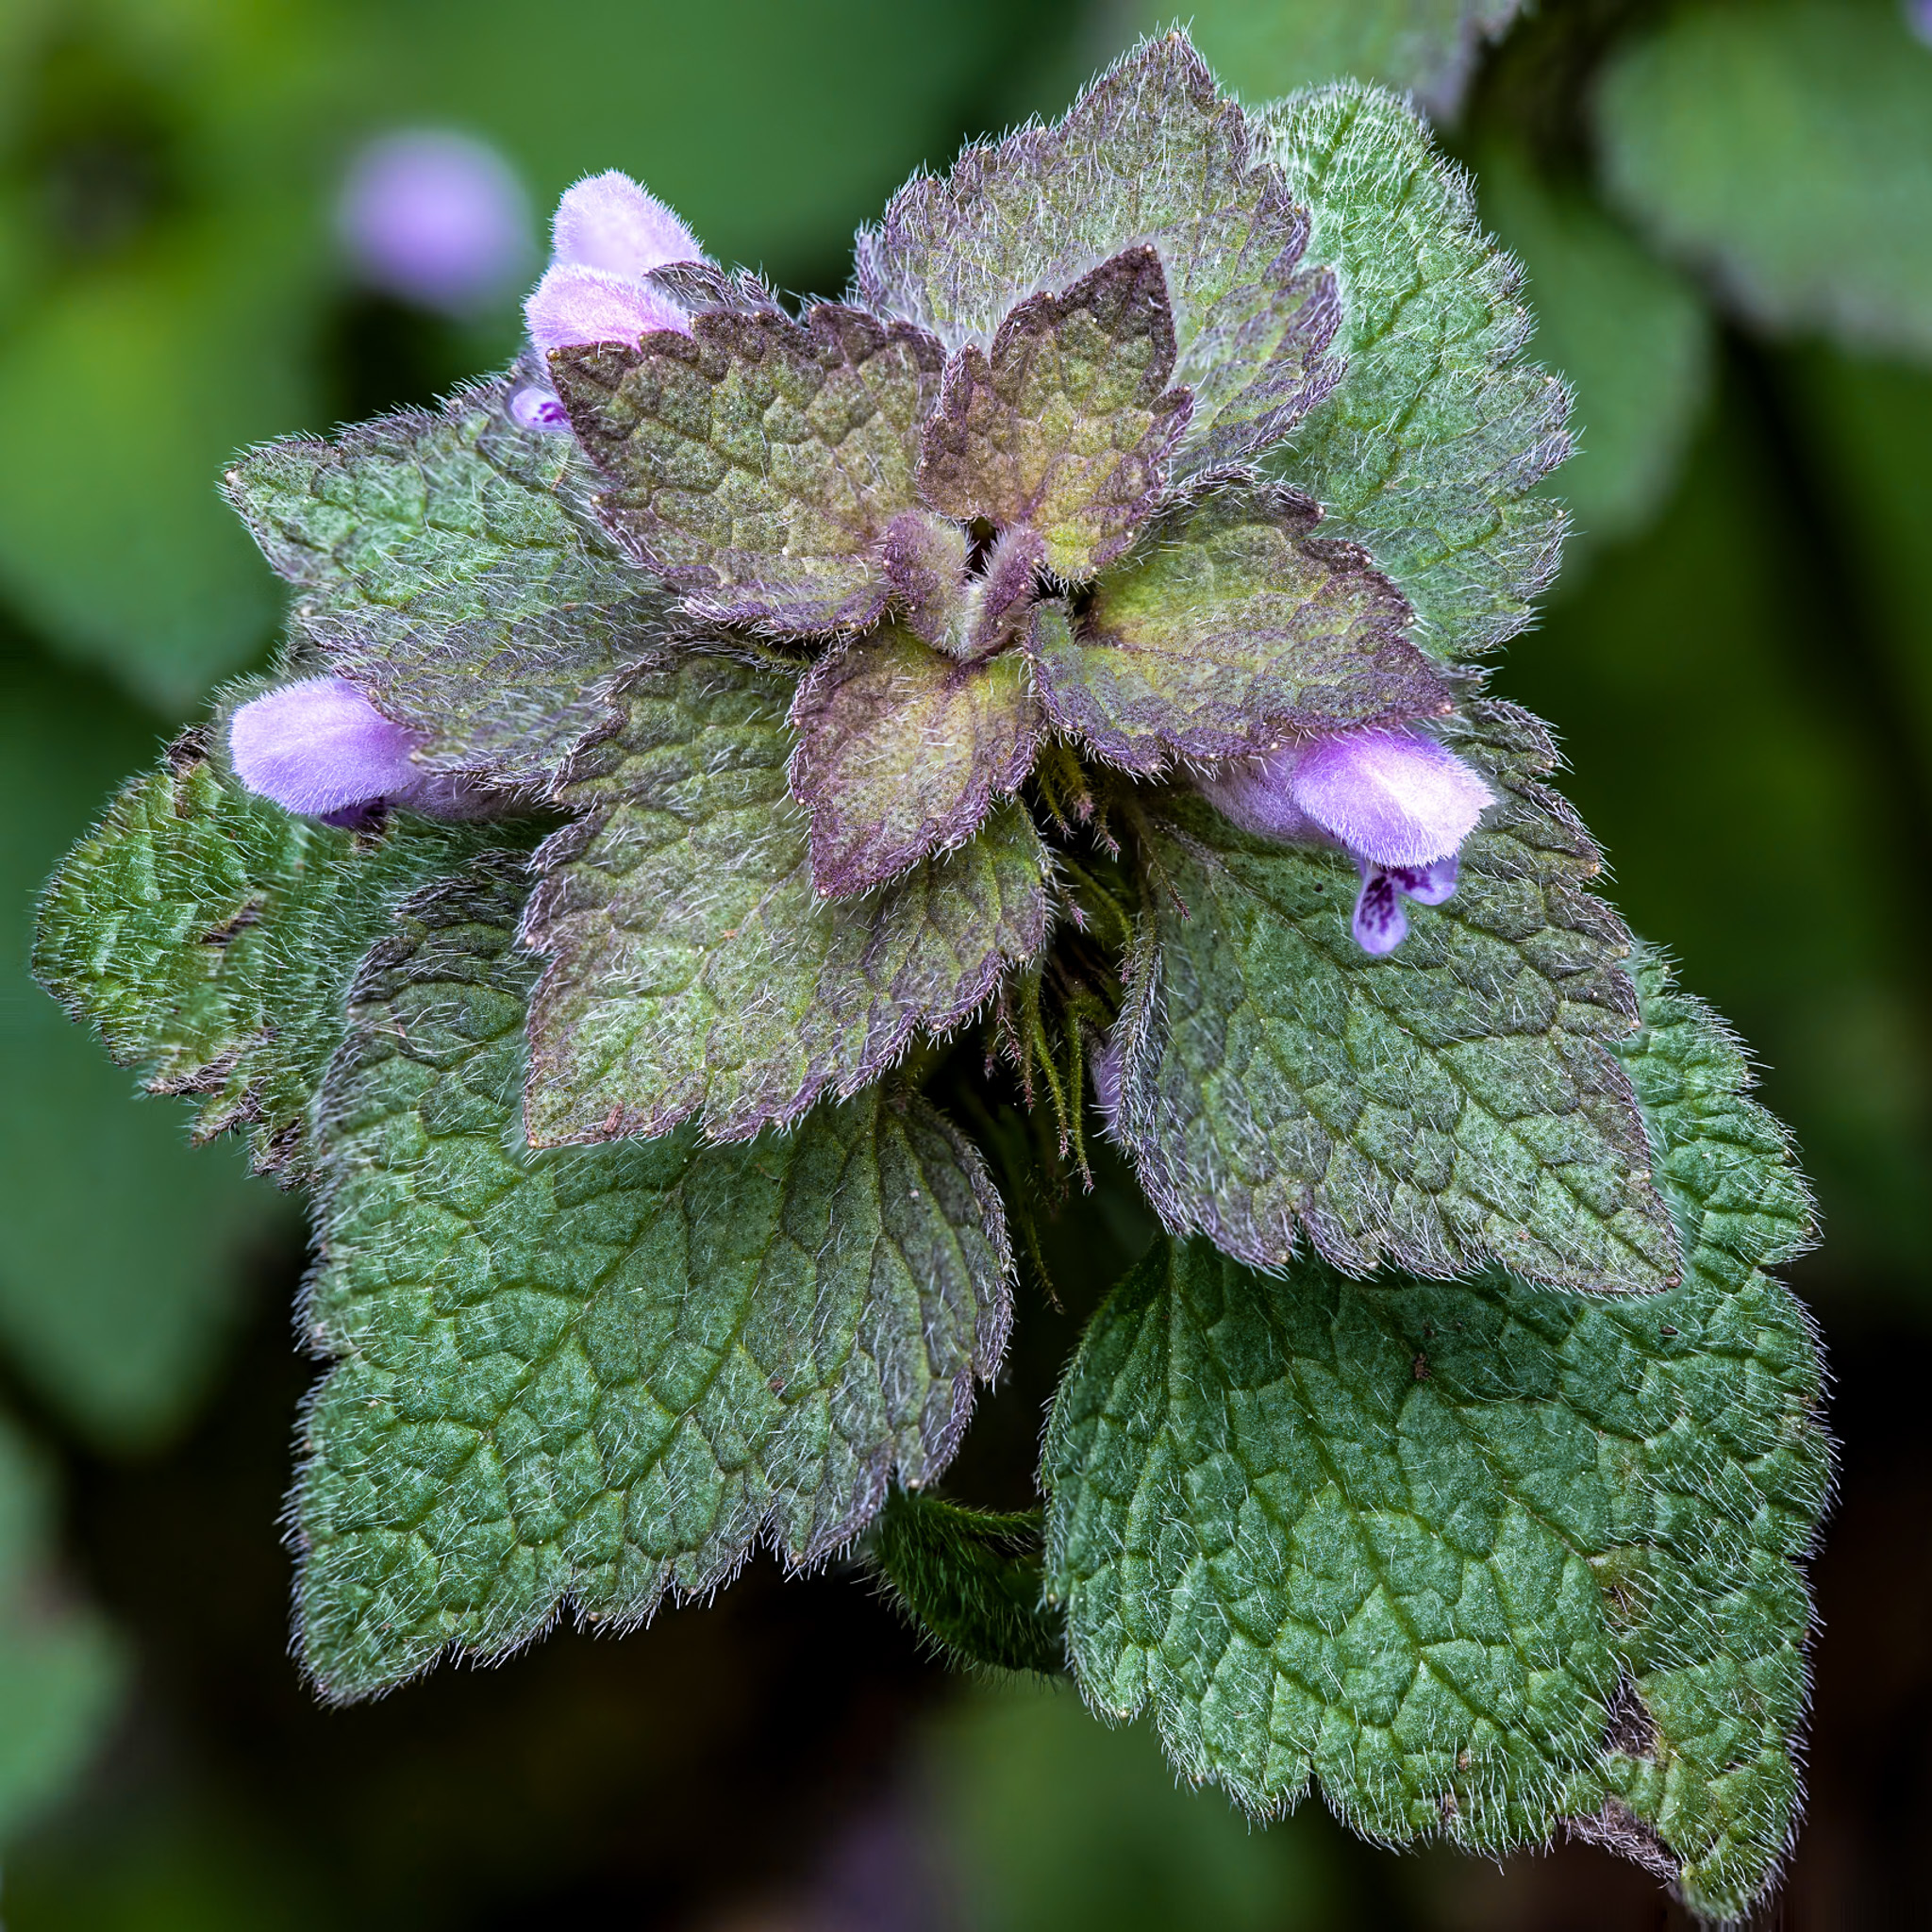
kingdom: Plantae
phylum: Tracheophyta
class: Magnoliopsida
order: Lamiales
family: Lamiaceae
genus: Lamium
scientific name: Lamium purpureum
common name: Red dead-nettle
